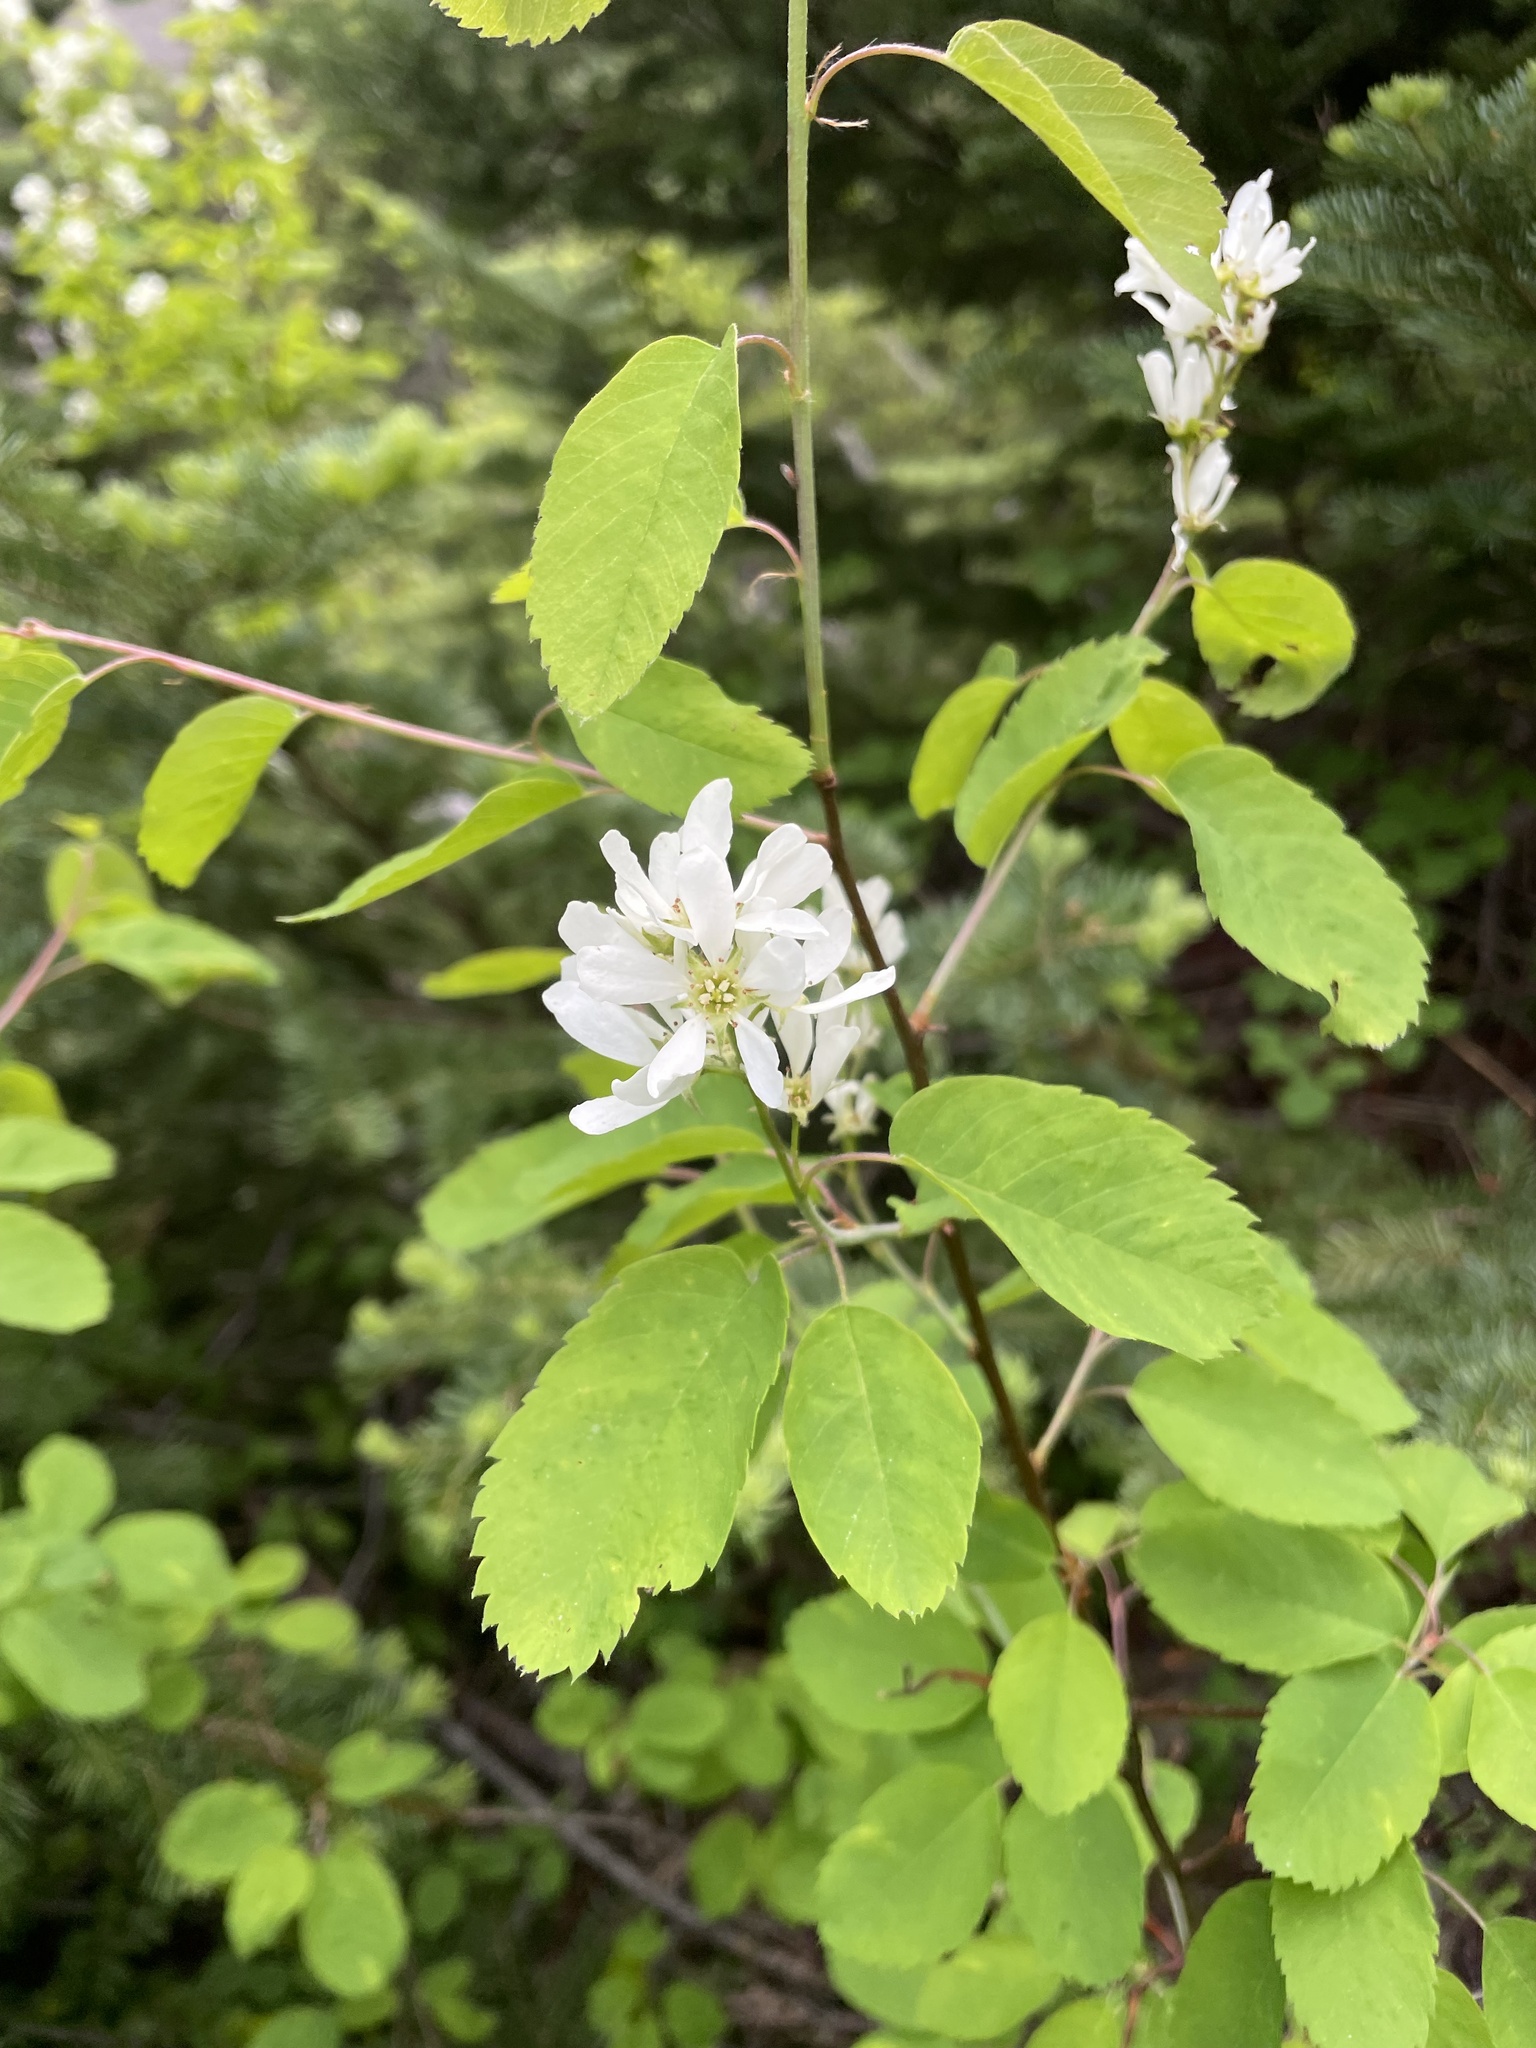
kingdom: Plantae
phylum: Tracheophyta
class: Magnoliopsida
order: Rosales
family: Rosaceae
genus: Amelanchier
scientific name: Amelanchier alnifolia
